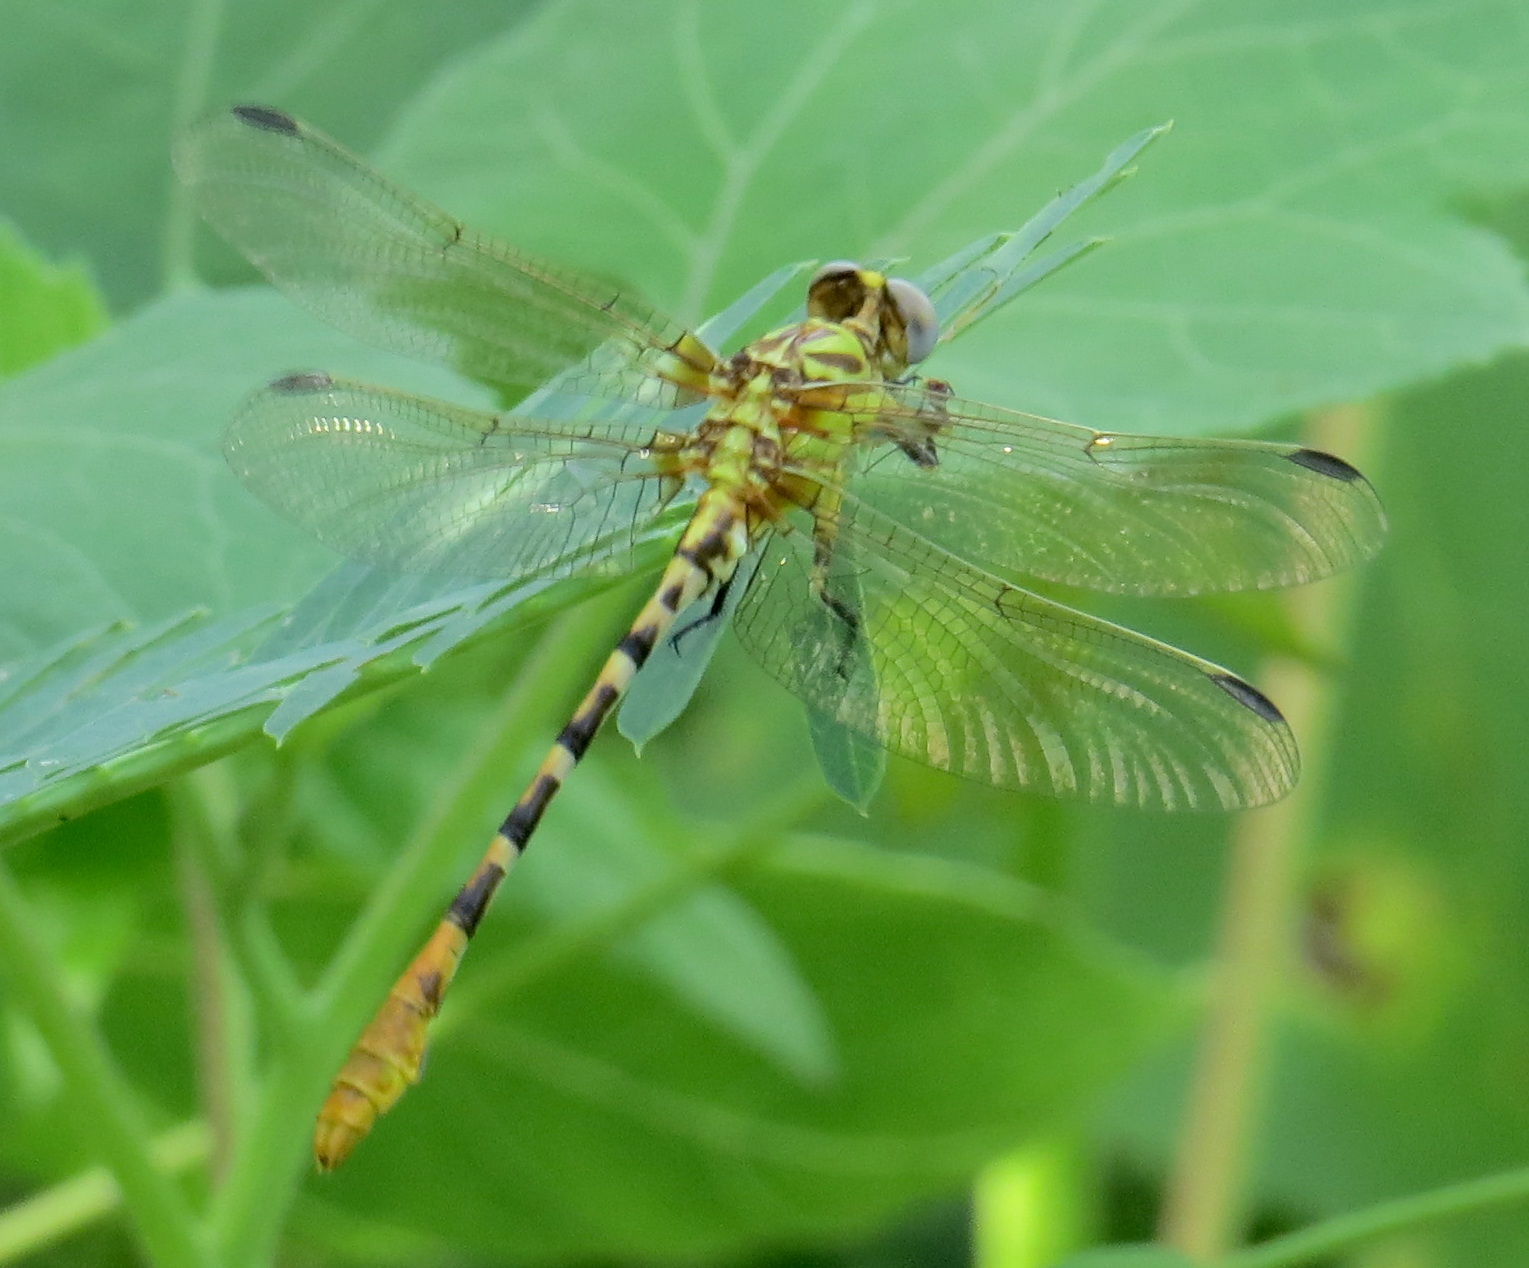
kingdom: Animalia
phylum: Arthropoda
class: Insecta
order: Odonata
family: Gomphidae
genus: Erpetogomphus
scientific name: Erpetogomphus designatus
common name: Eastern ringtail
